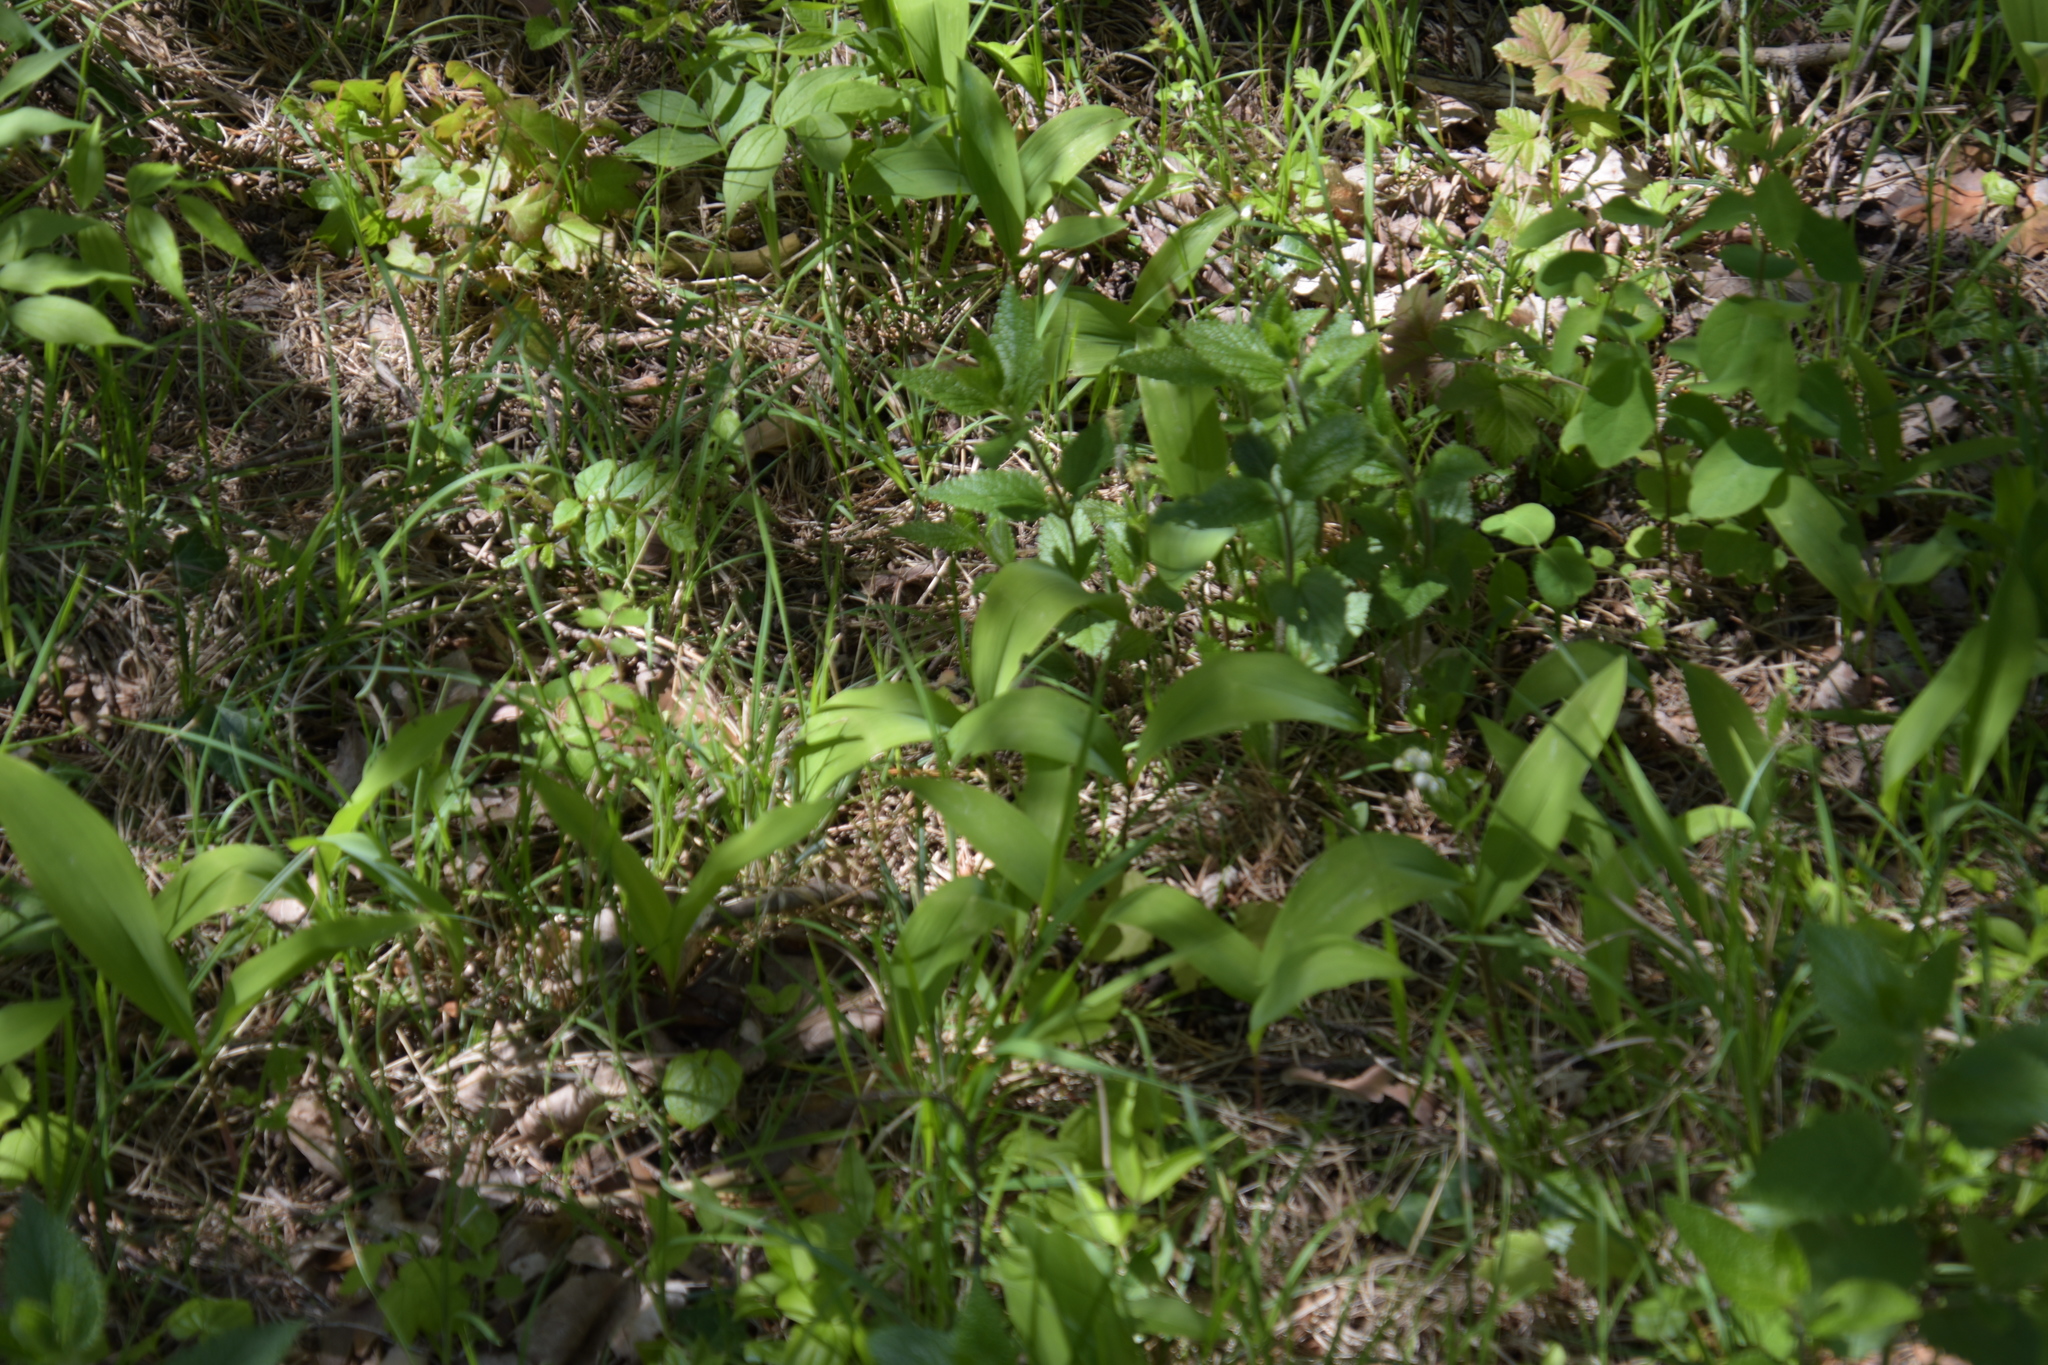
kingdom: Plantae
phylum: Tracheophyta
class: Liliopsida
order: Asparagales
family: Asparagaceae
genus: Convallaria
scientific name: Convallaria majalis
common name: Lily-of-the-valley
